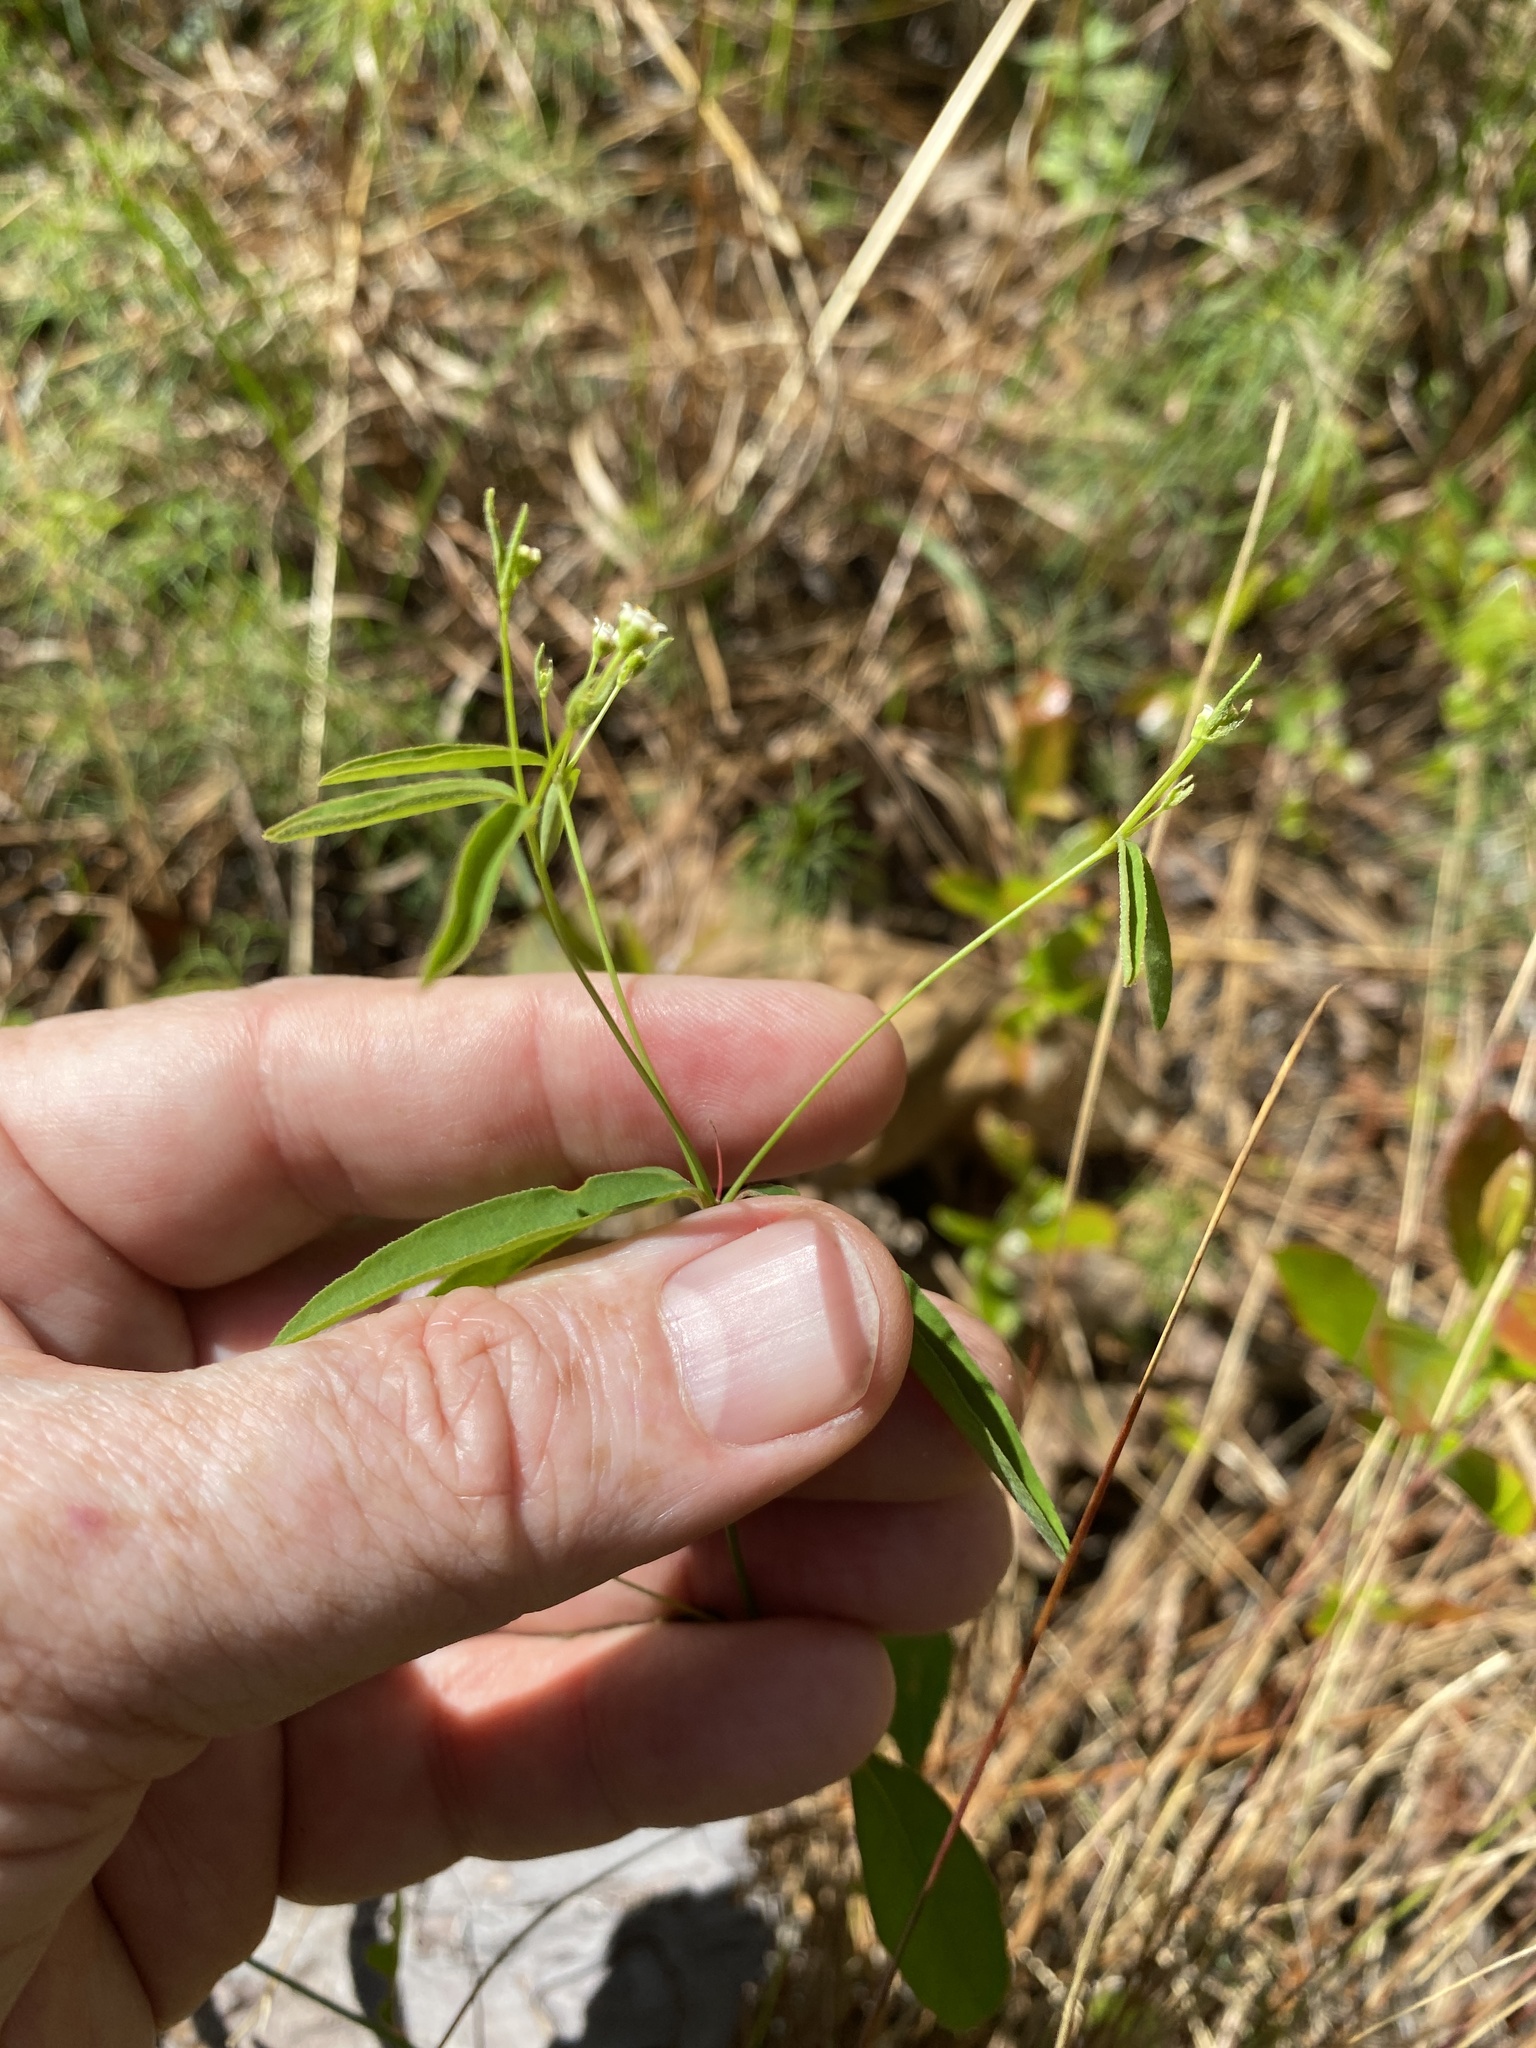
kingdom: Plantae
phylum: Tracheophyta
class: Magnoliopsida
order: Malpighiales
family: Euphorbiaceae
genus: Euphorbia
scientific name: Euphorbia curtisii
